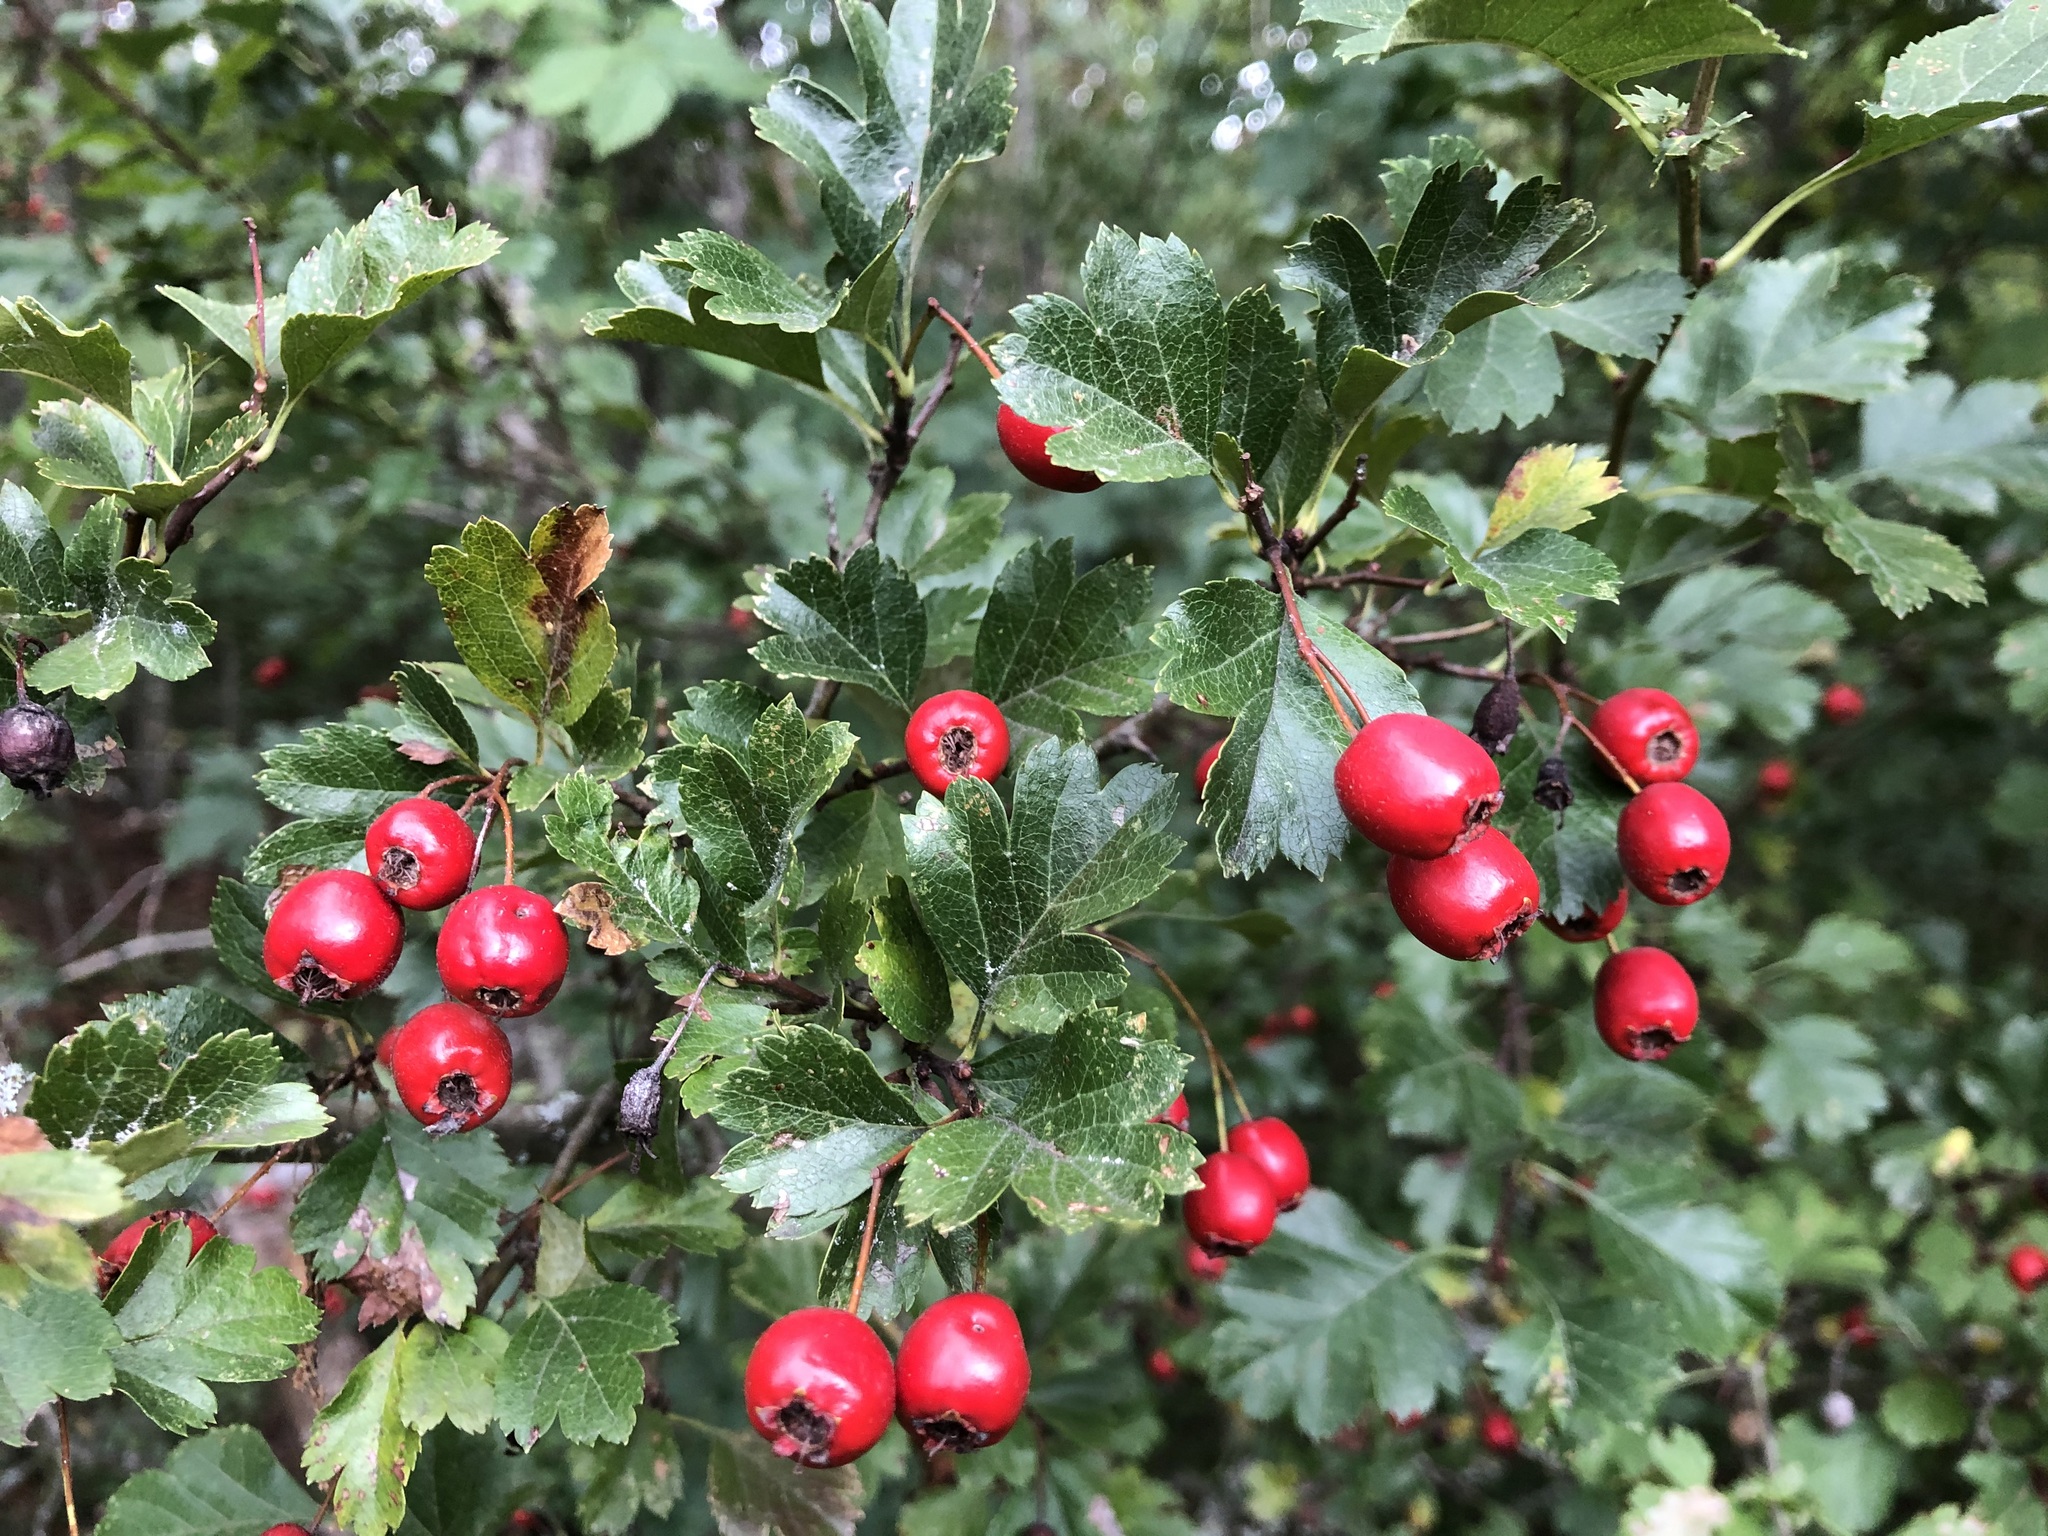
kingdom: Plantae
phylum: Tracheophyta
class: Magnoliopsida
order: Rosales
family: Rosaceae
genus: Crataegus
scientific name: Crataegus monogyna
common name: Hawthorn
